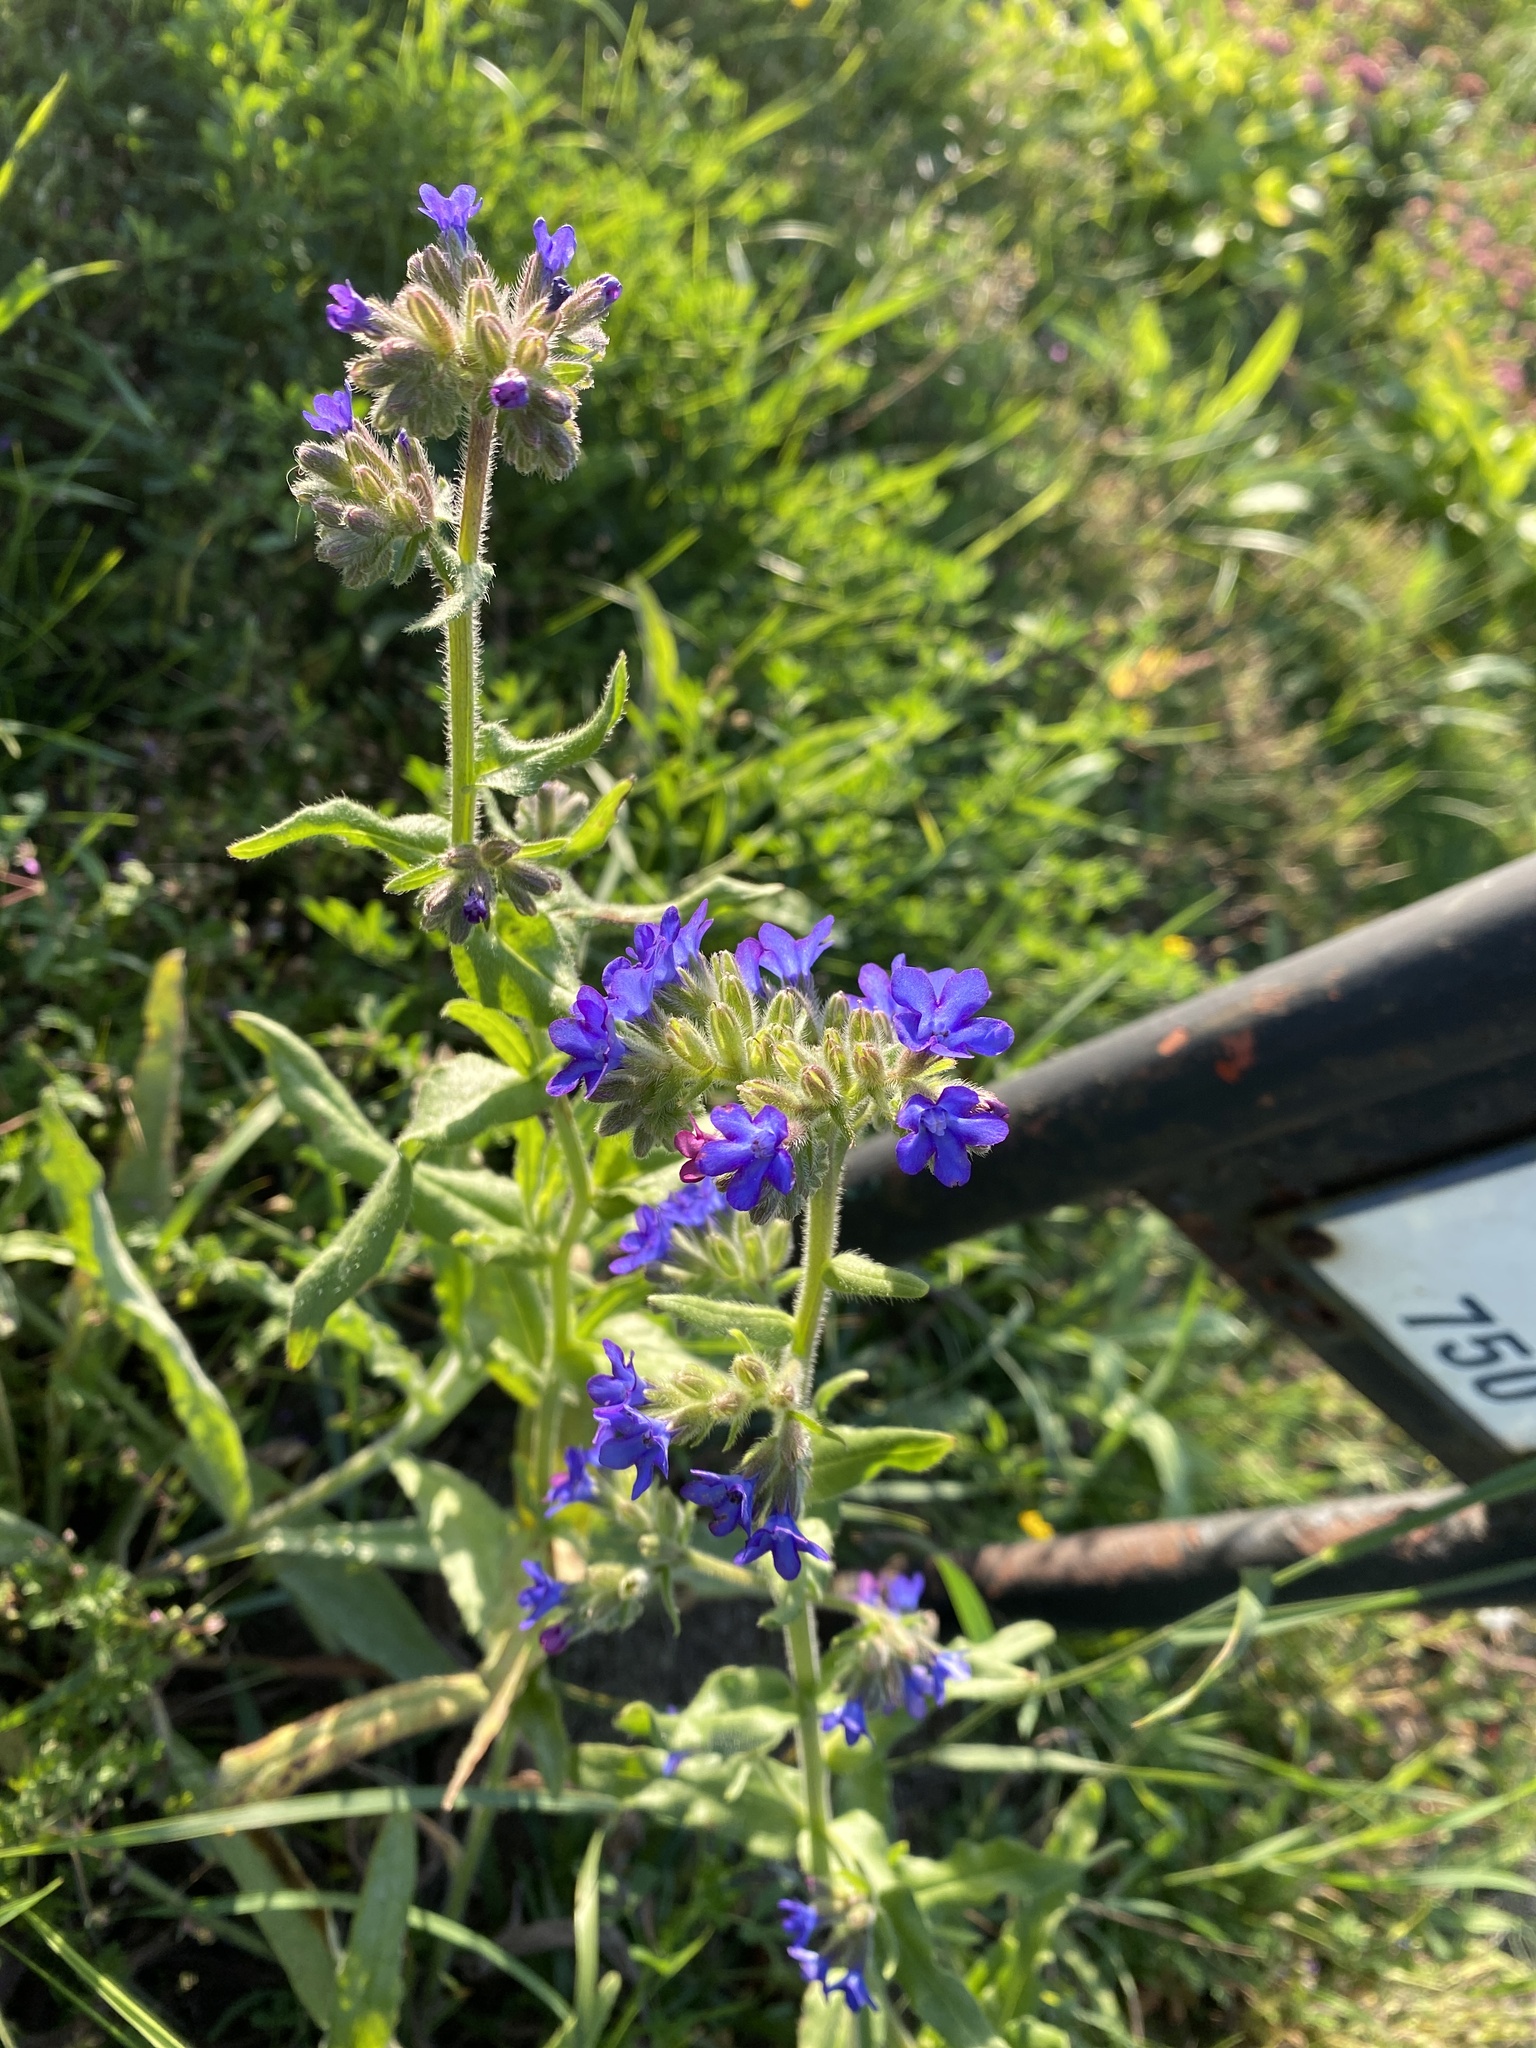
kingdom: Plantae
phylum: Tracheophyta
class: Magnoliopsida
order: Boraginales
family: Boraginaceae
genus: Anchusa
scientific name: Anchusa officinalis
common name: Alkanet
